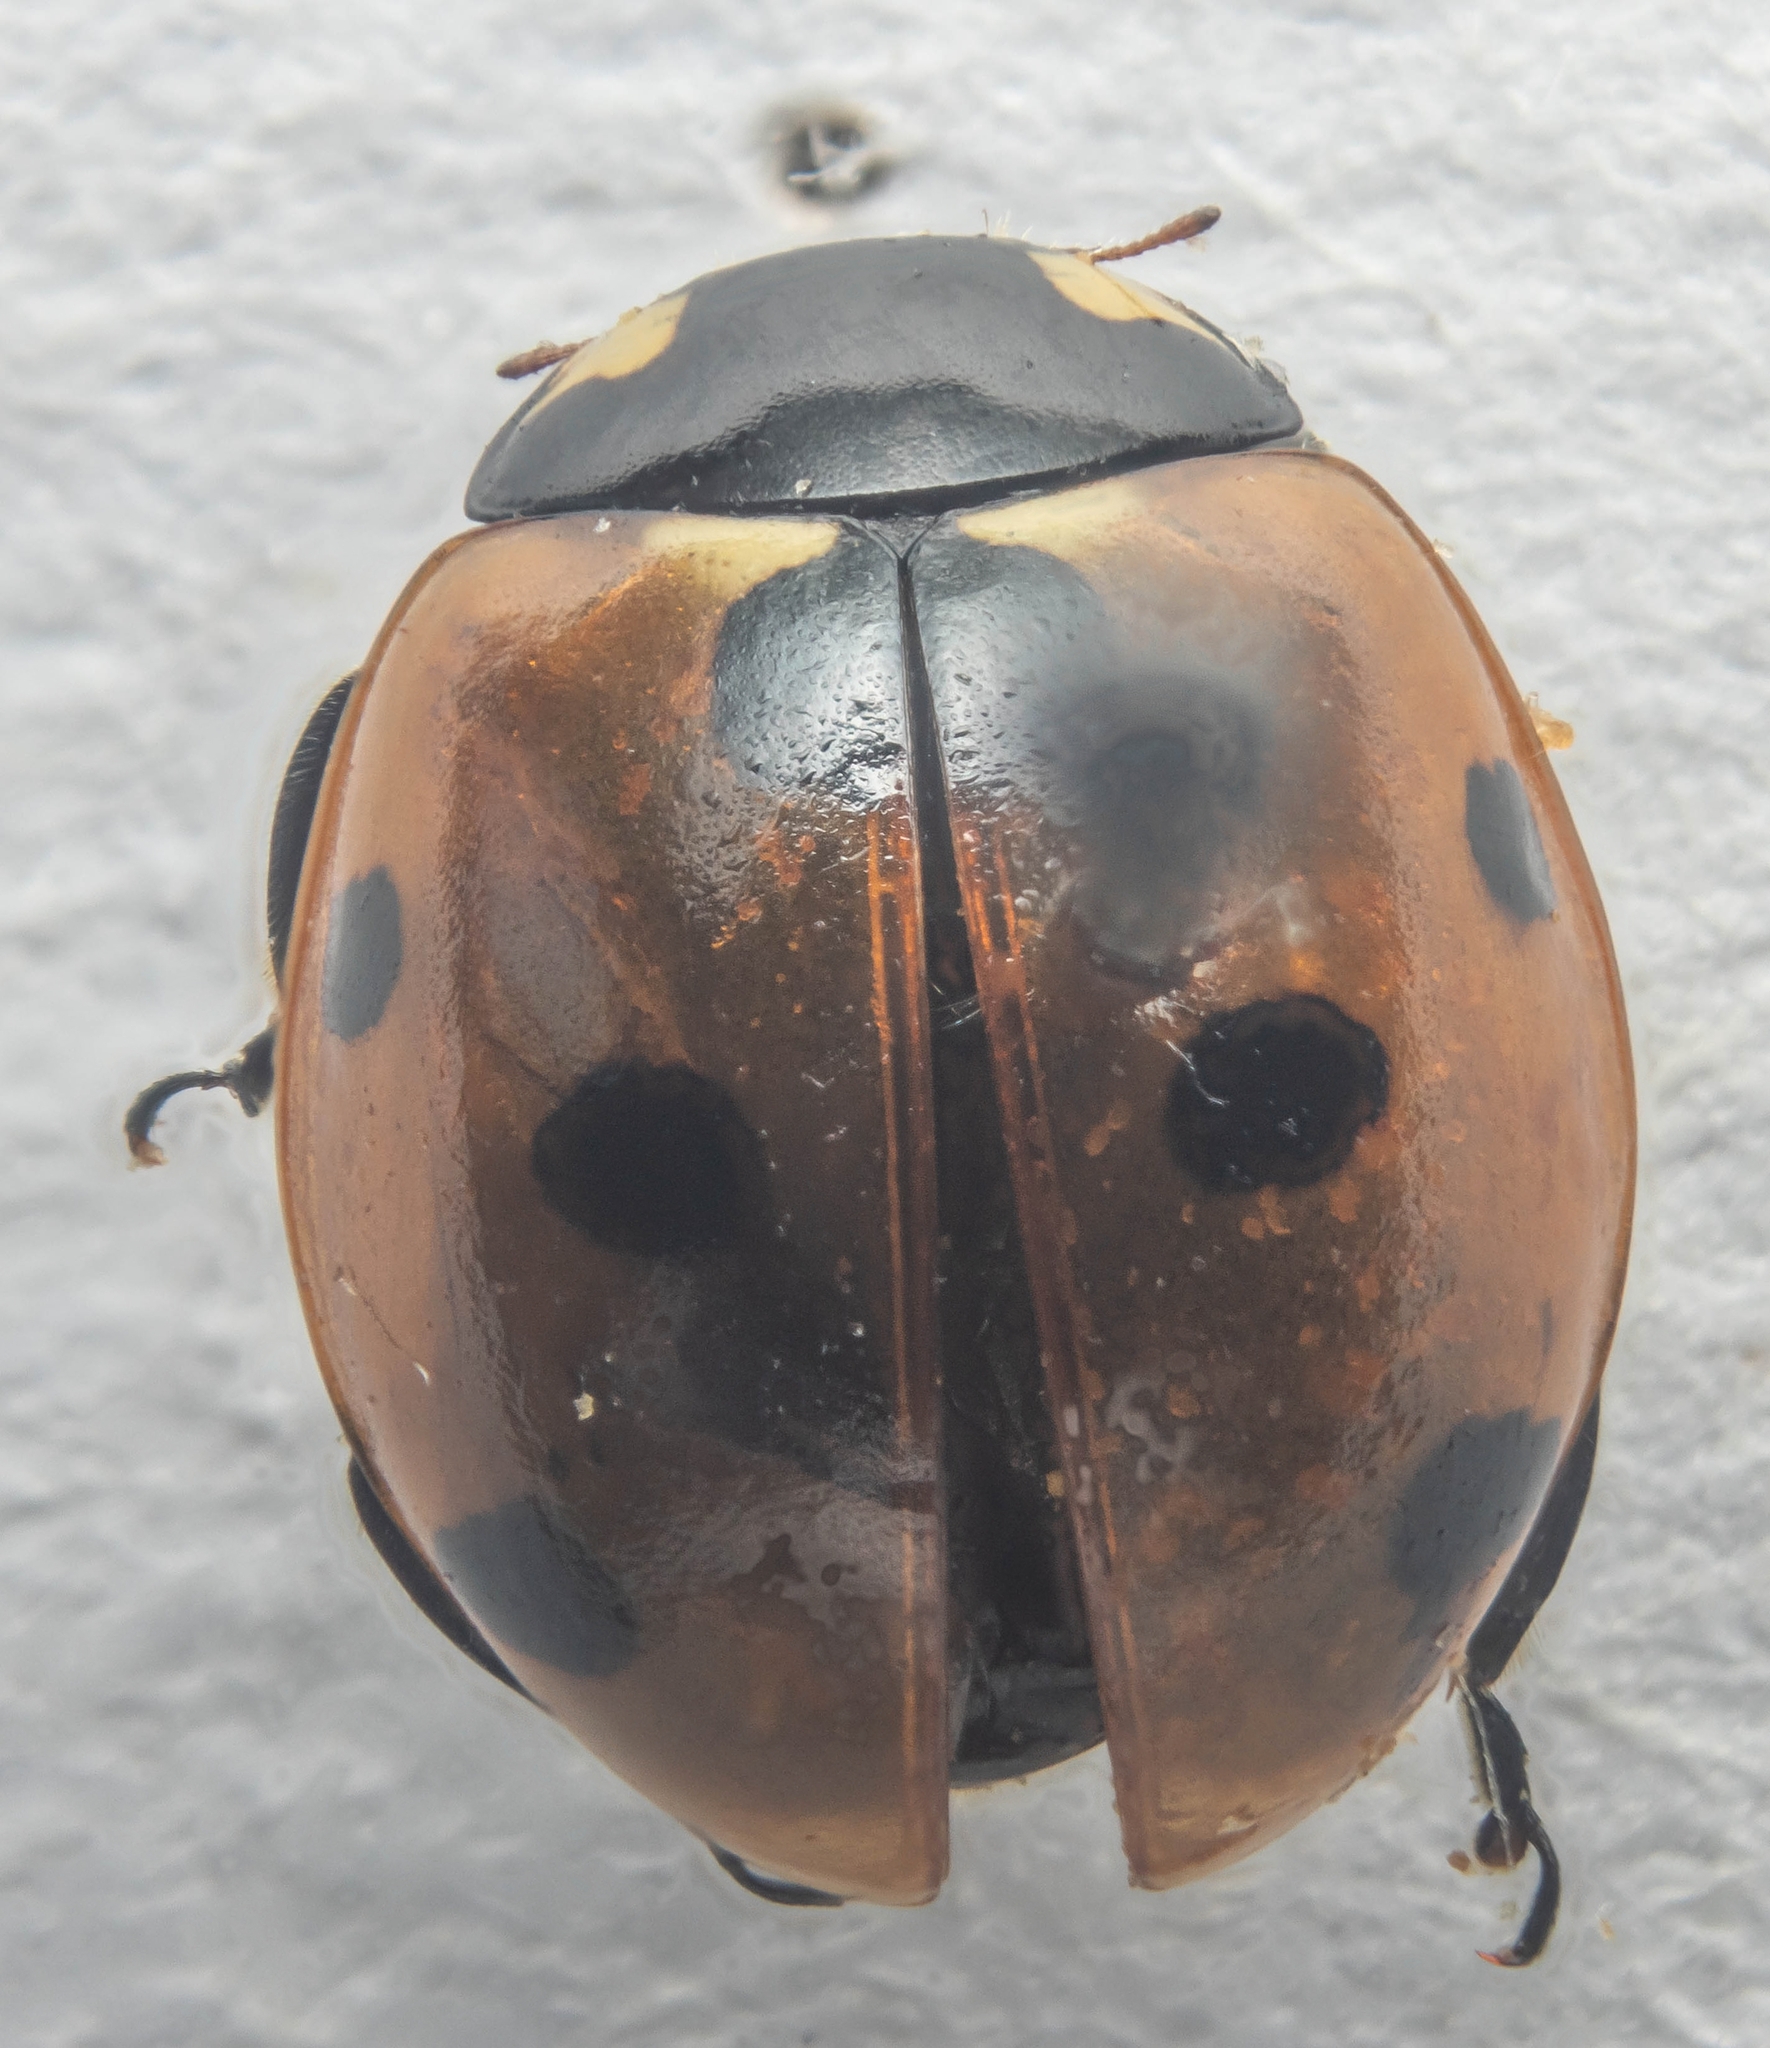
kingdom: Animalia
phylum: Arthropoda
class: Insecta
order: Coleoptera
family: Coccinellidae
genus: Coccinella
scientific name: Coccinella septempunctata
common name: Sevenspotted lady beetle
